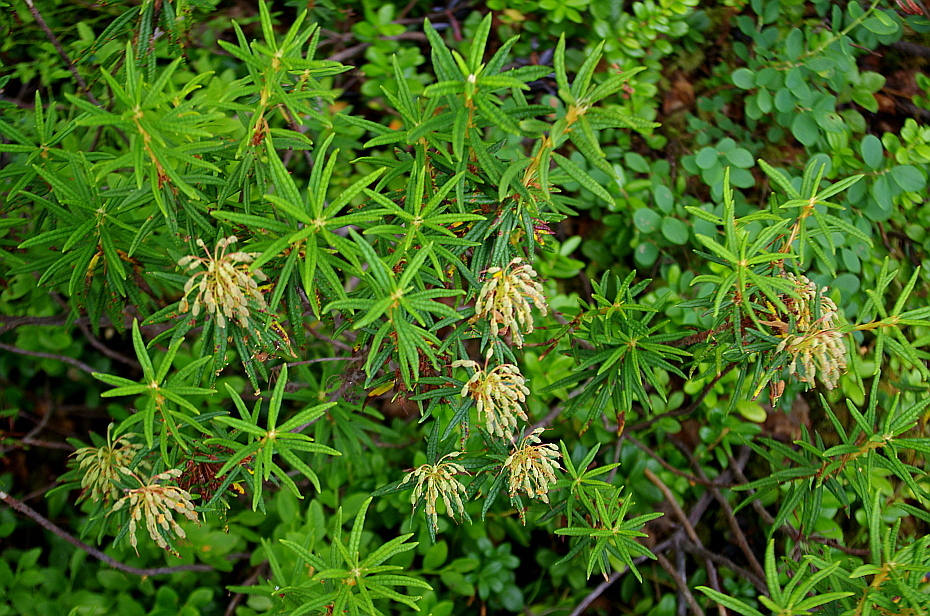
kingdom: Plantae
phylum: Tracheophyta
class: Magnoliopsida
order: Ericales
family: Ericaceae
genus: Rhododendron
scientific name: Rhododendron tomentosum
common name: Marsh labrador tea
